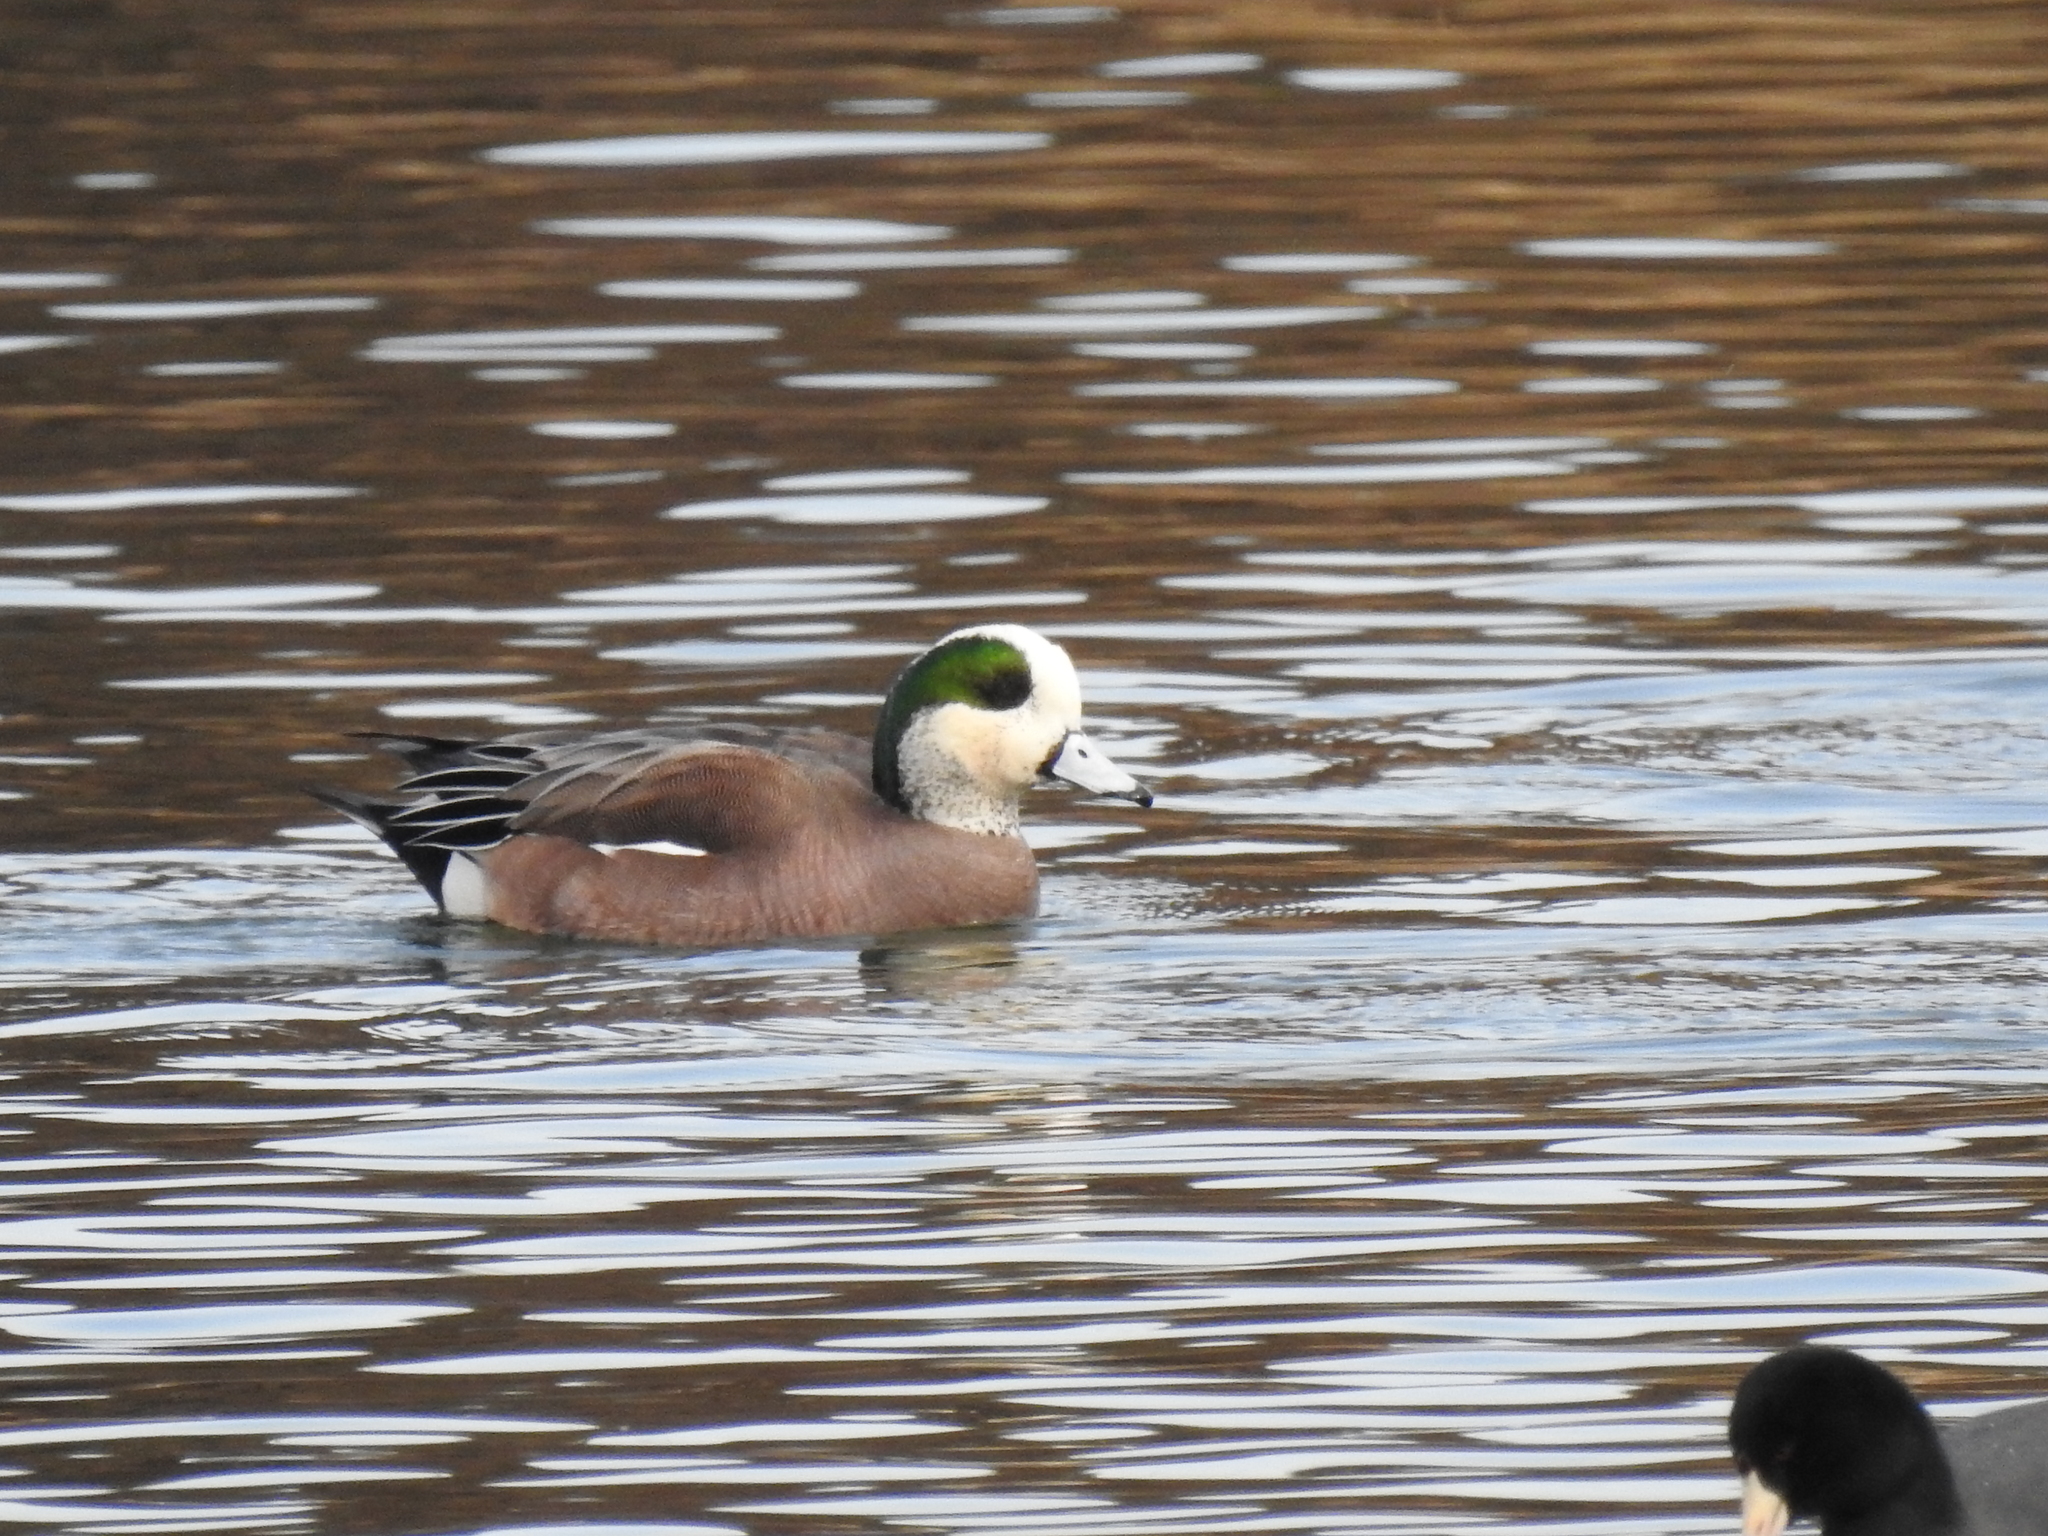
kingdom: Animalia
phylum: Chordata
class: Aves
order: Anseriformes
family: Anatidae
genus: Mareca
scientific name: Mareca americana
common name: American wigeon
